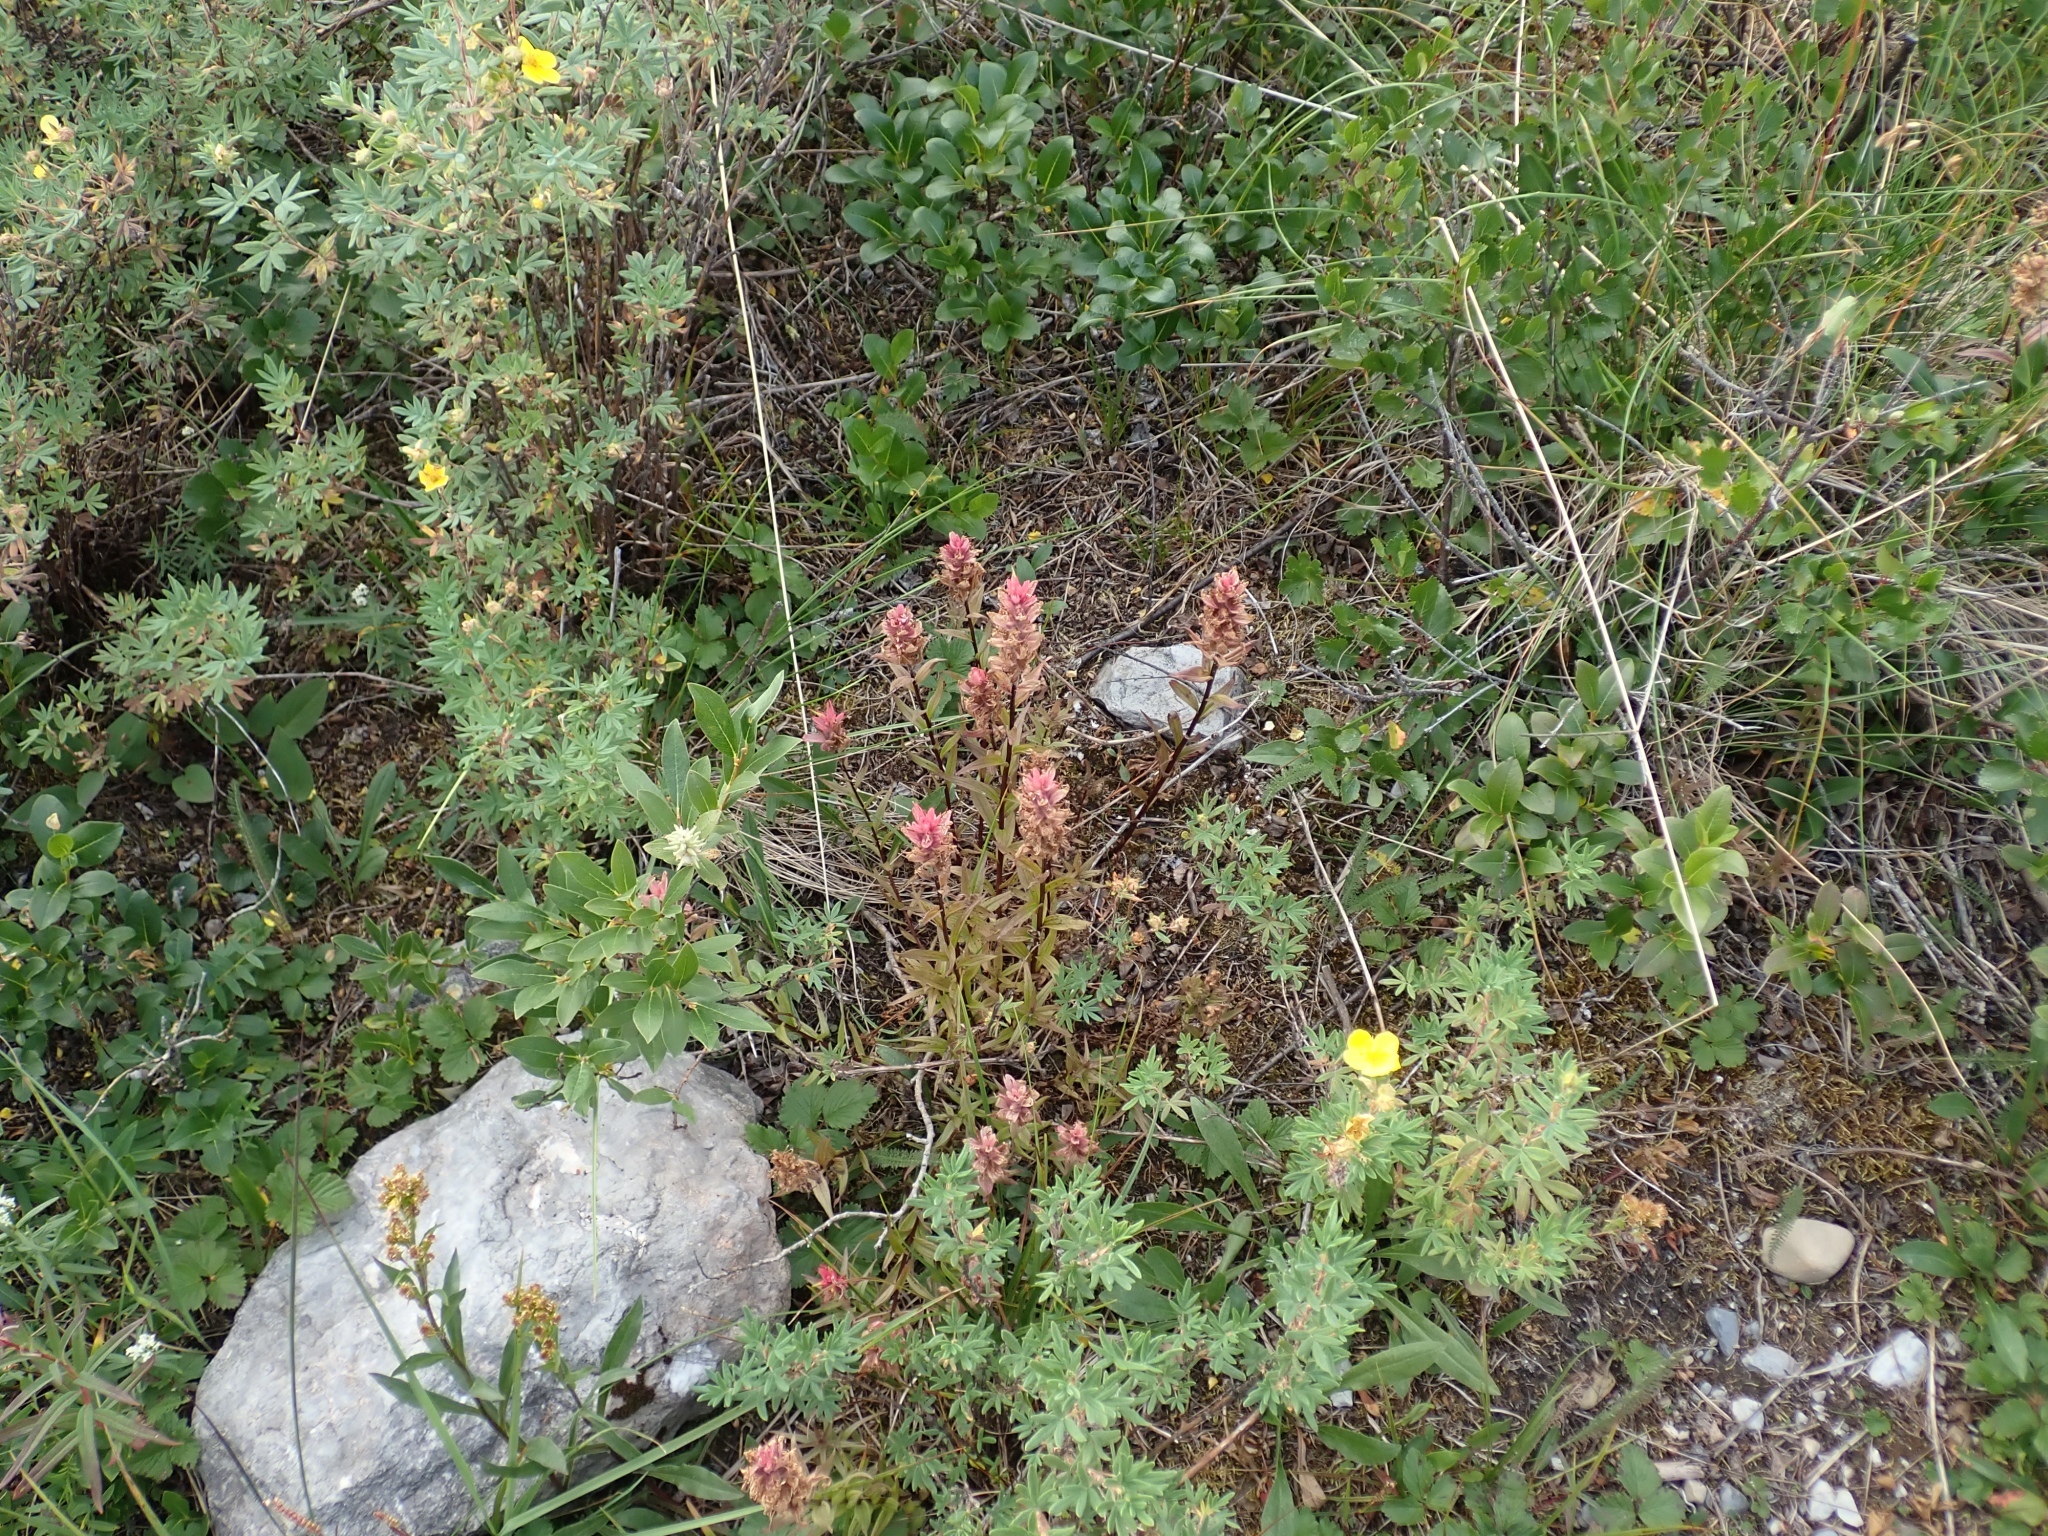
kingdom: Plantae
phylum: Tracheophyta
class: Magnoliopsida
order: Lamiales
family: Orobanchaceae
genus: Castilleja
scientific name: Castilleja miniata
